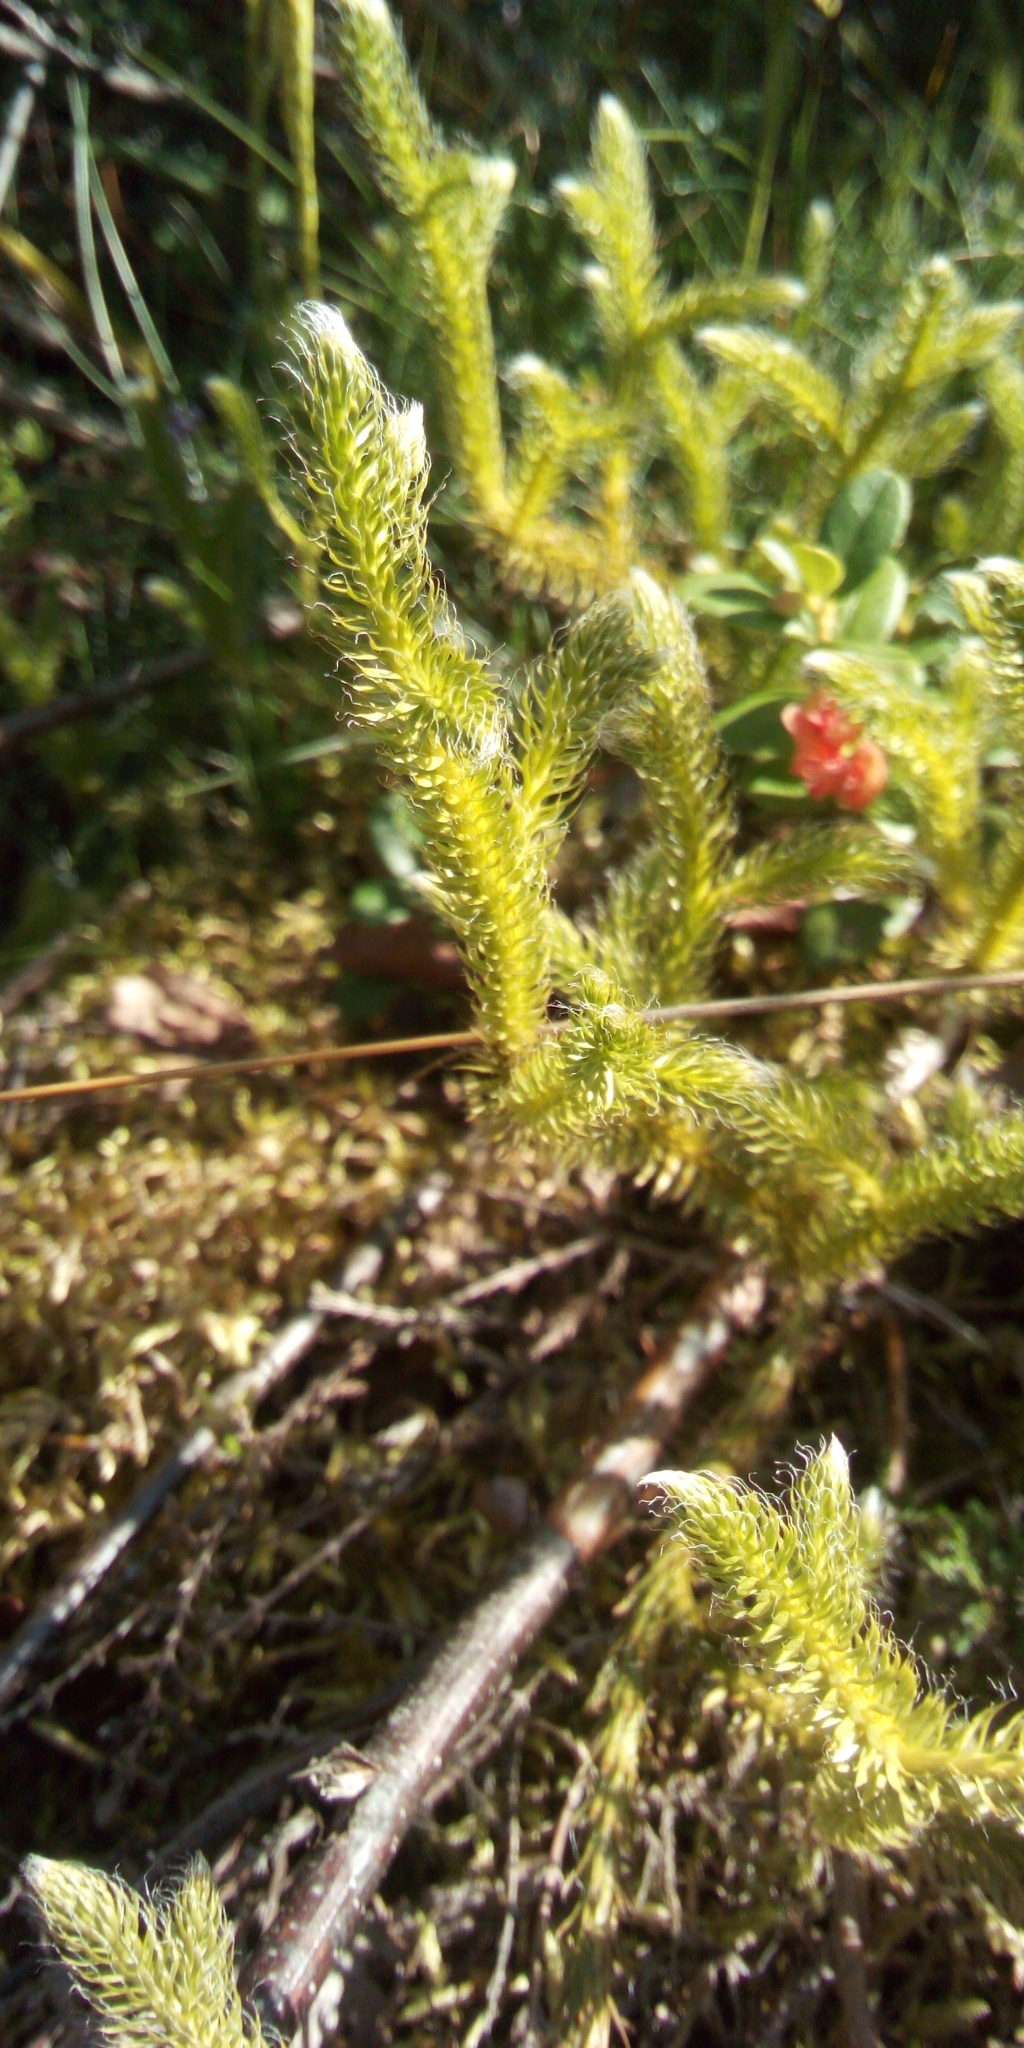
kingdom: Plantae
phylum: Tracheophyta
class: Lycopodiopsida
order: Lycopodiales
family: Lycopodiaceae
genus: Lycopodium
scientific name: Lycopodium clavatum
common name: Stag's-horn clubmoss
